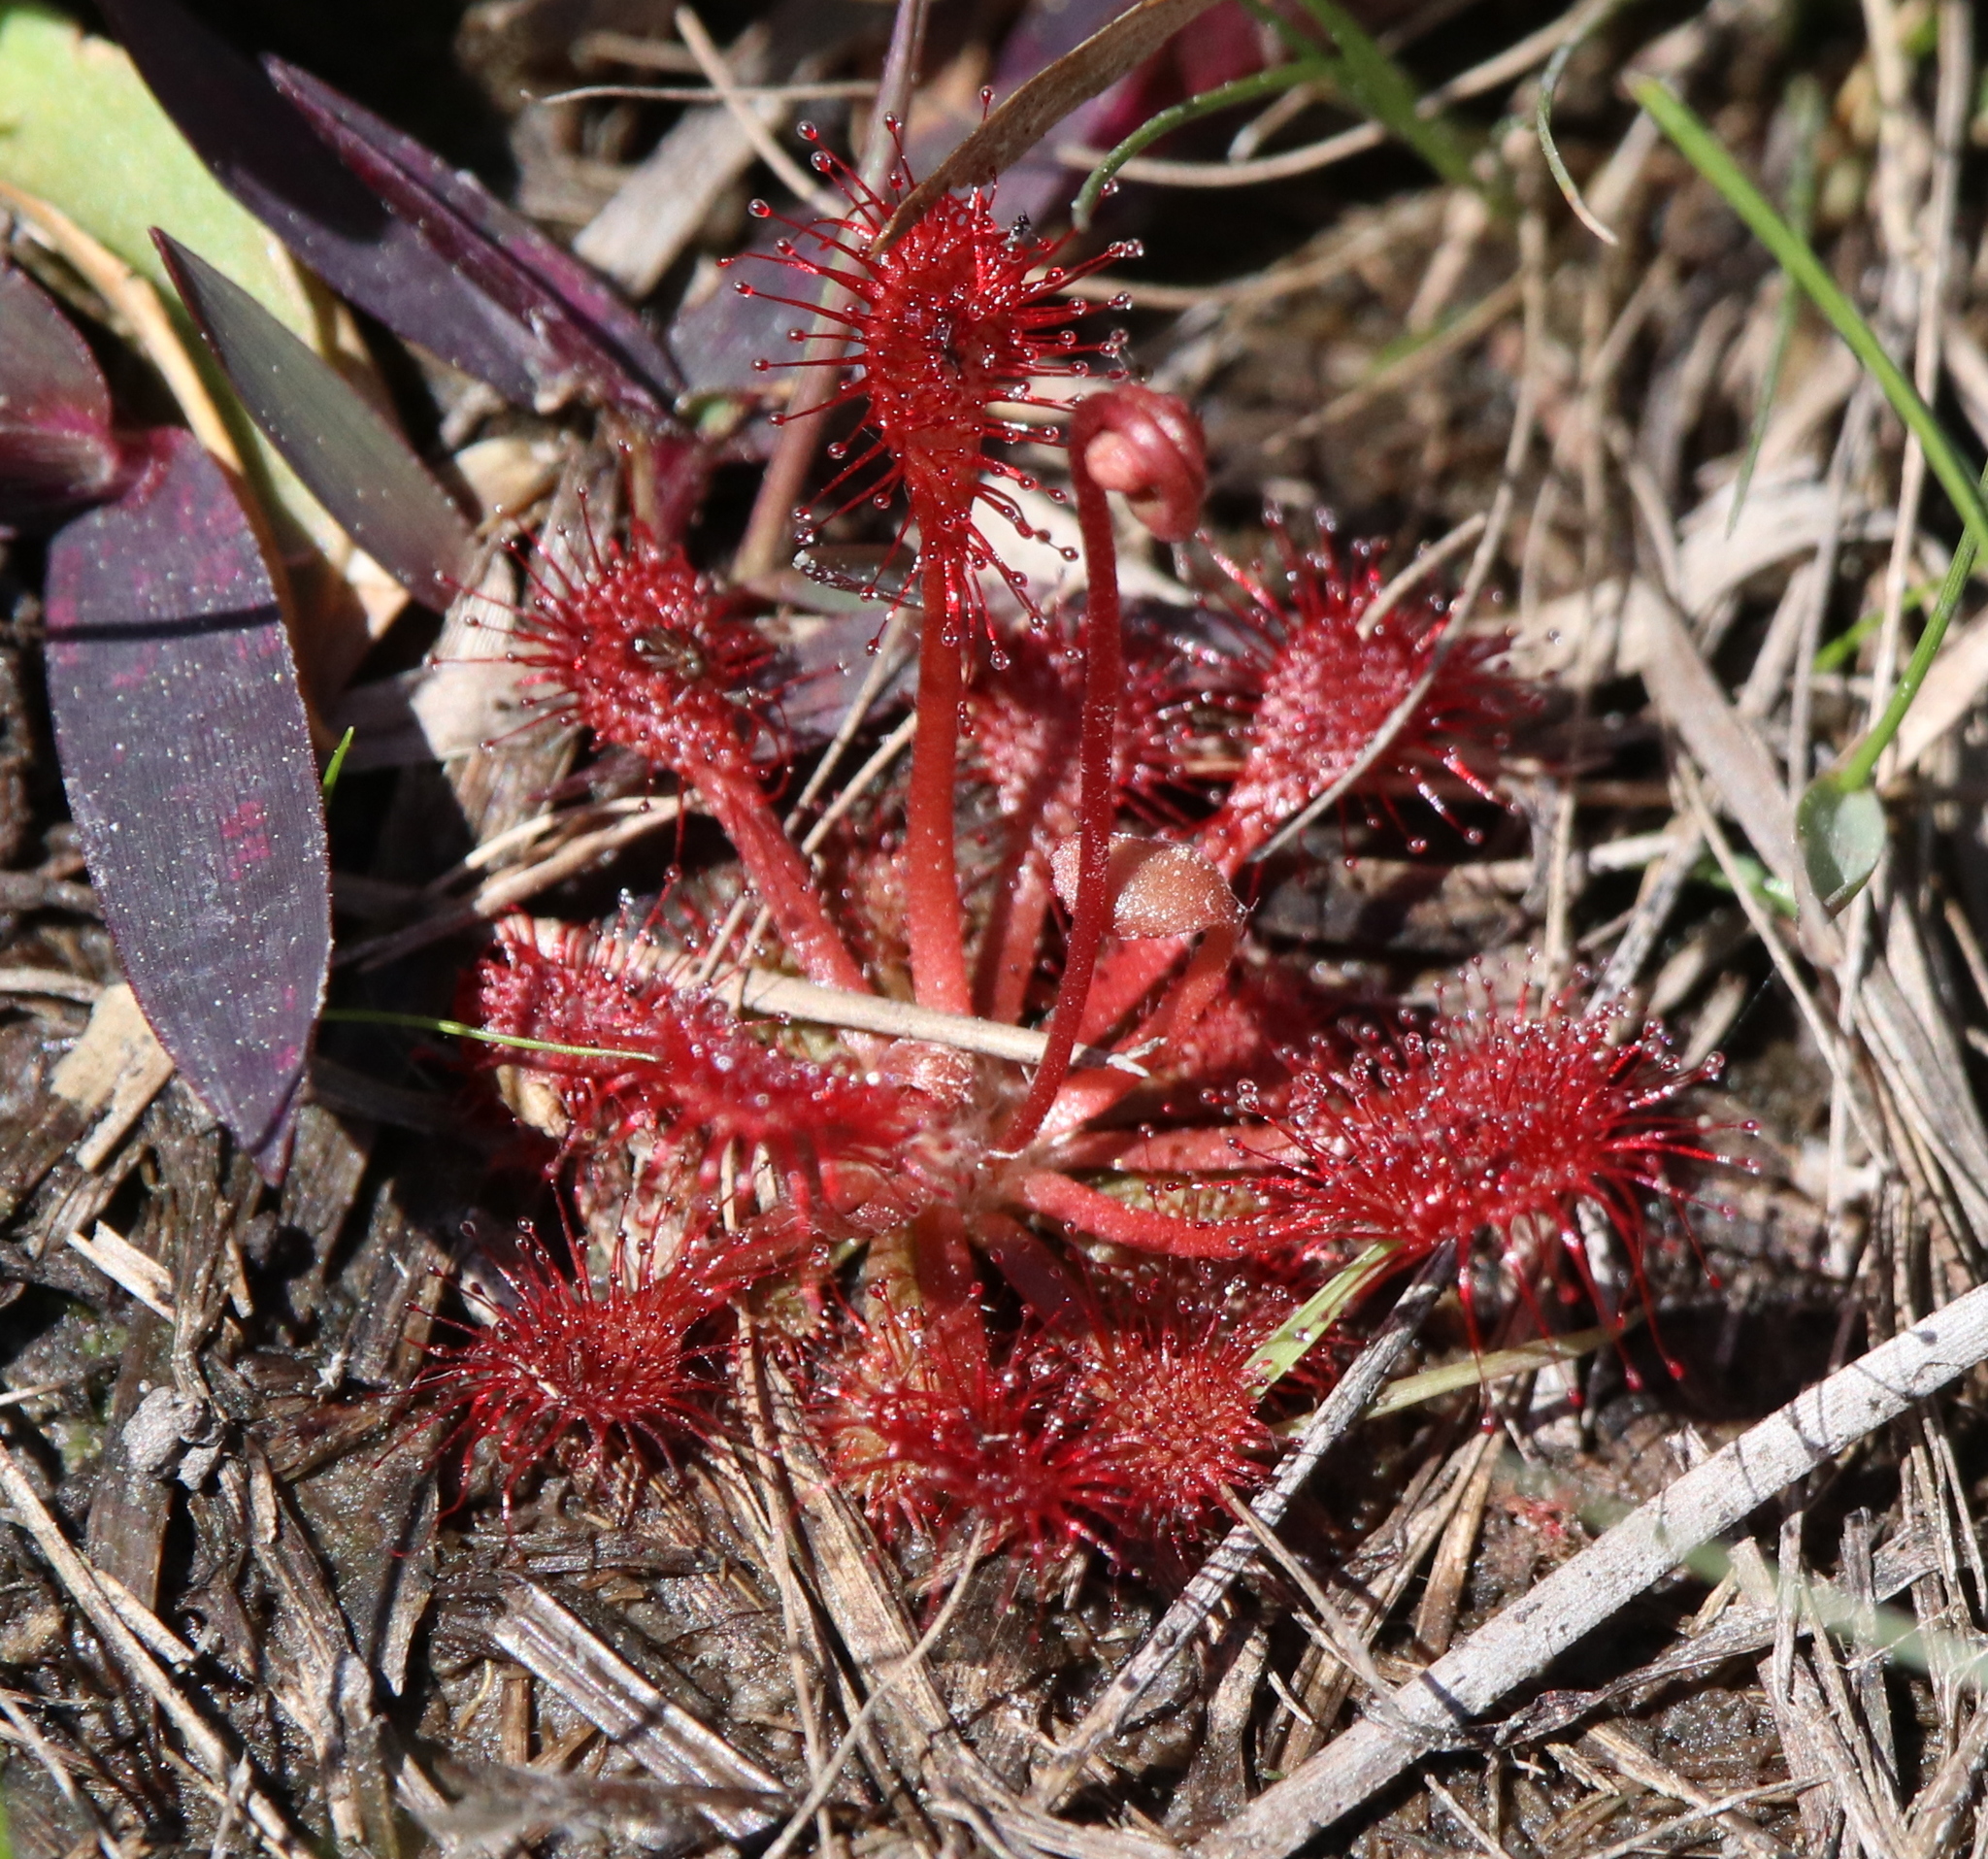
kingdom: Plantae
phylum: Tracheophyta
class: Magnoliopsida
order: Caryophyllales
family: Droseraceae
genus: Drosera
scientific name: Drosera capillaris
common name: Pink sundew
